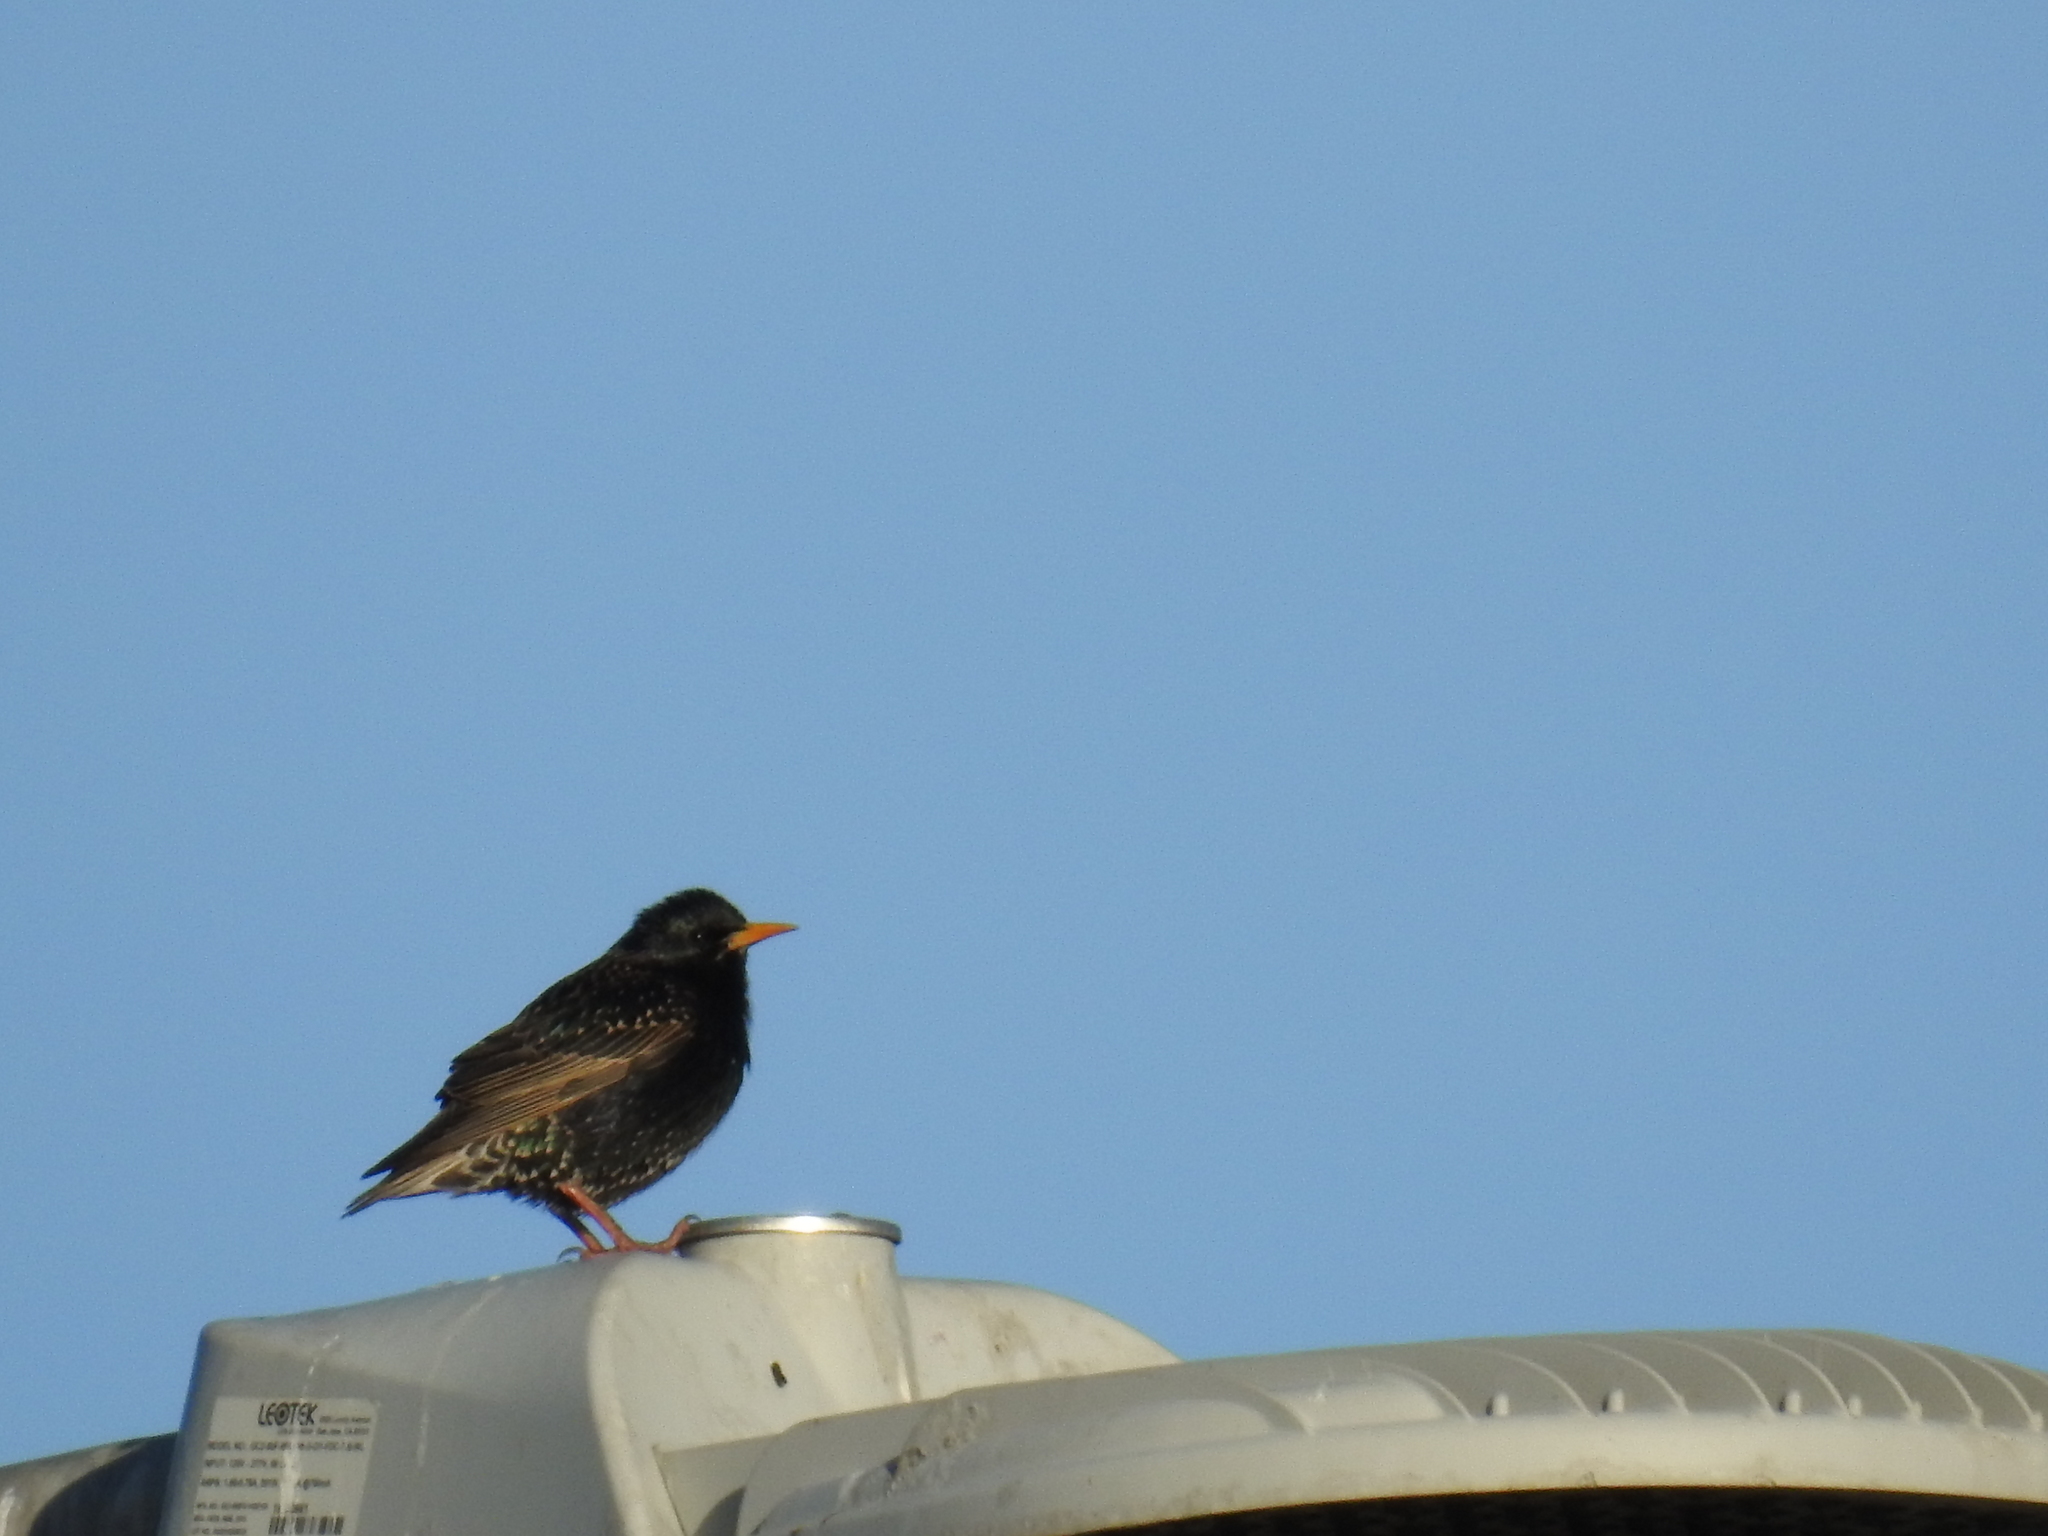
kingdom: Animalia
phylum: Chordata
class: Aves
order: Passeriformes
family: Sturnidae
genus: Sturnus
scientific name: Sturnus vulgaris
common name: Common starling
